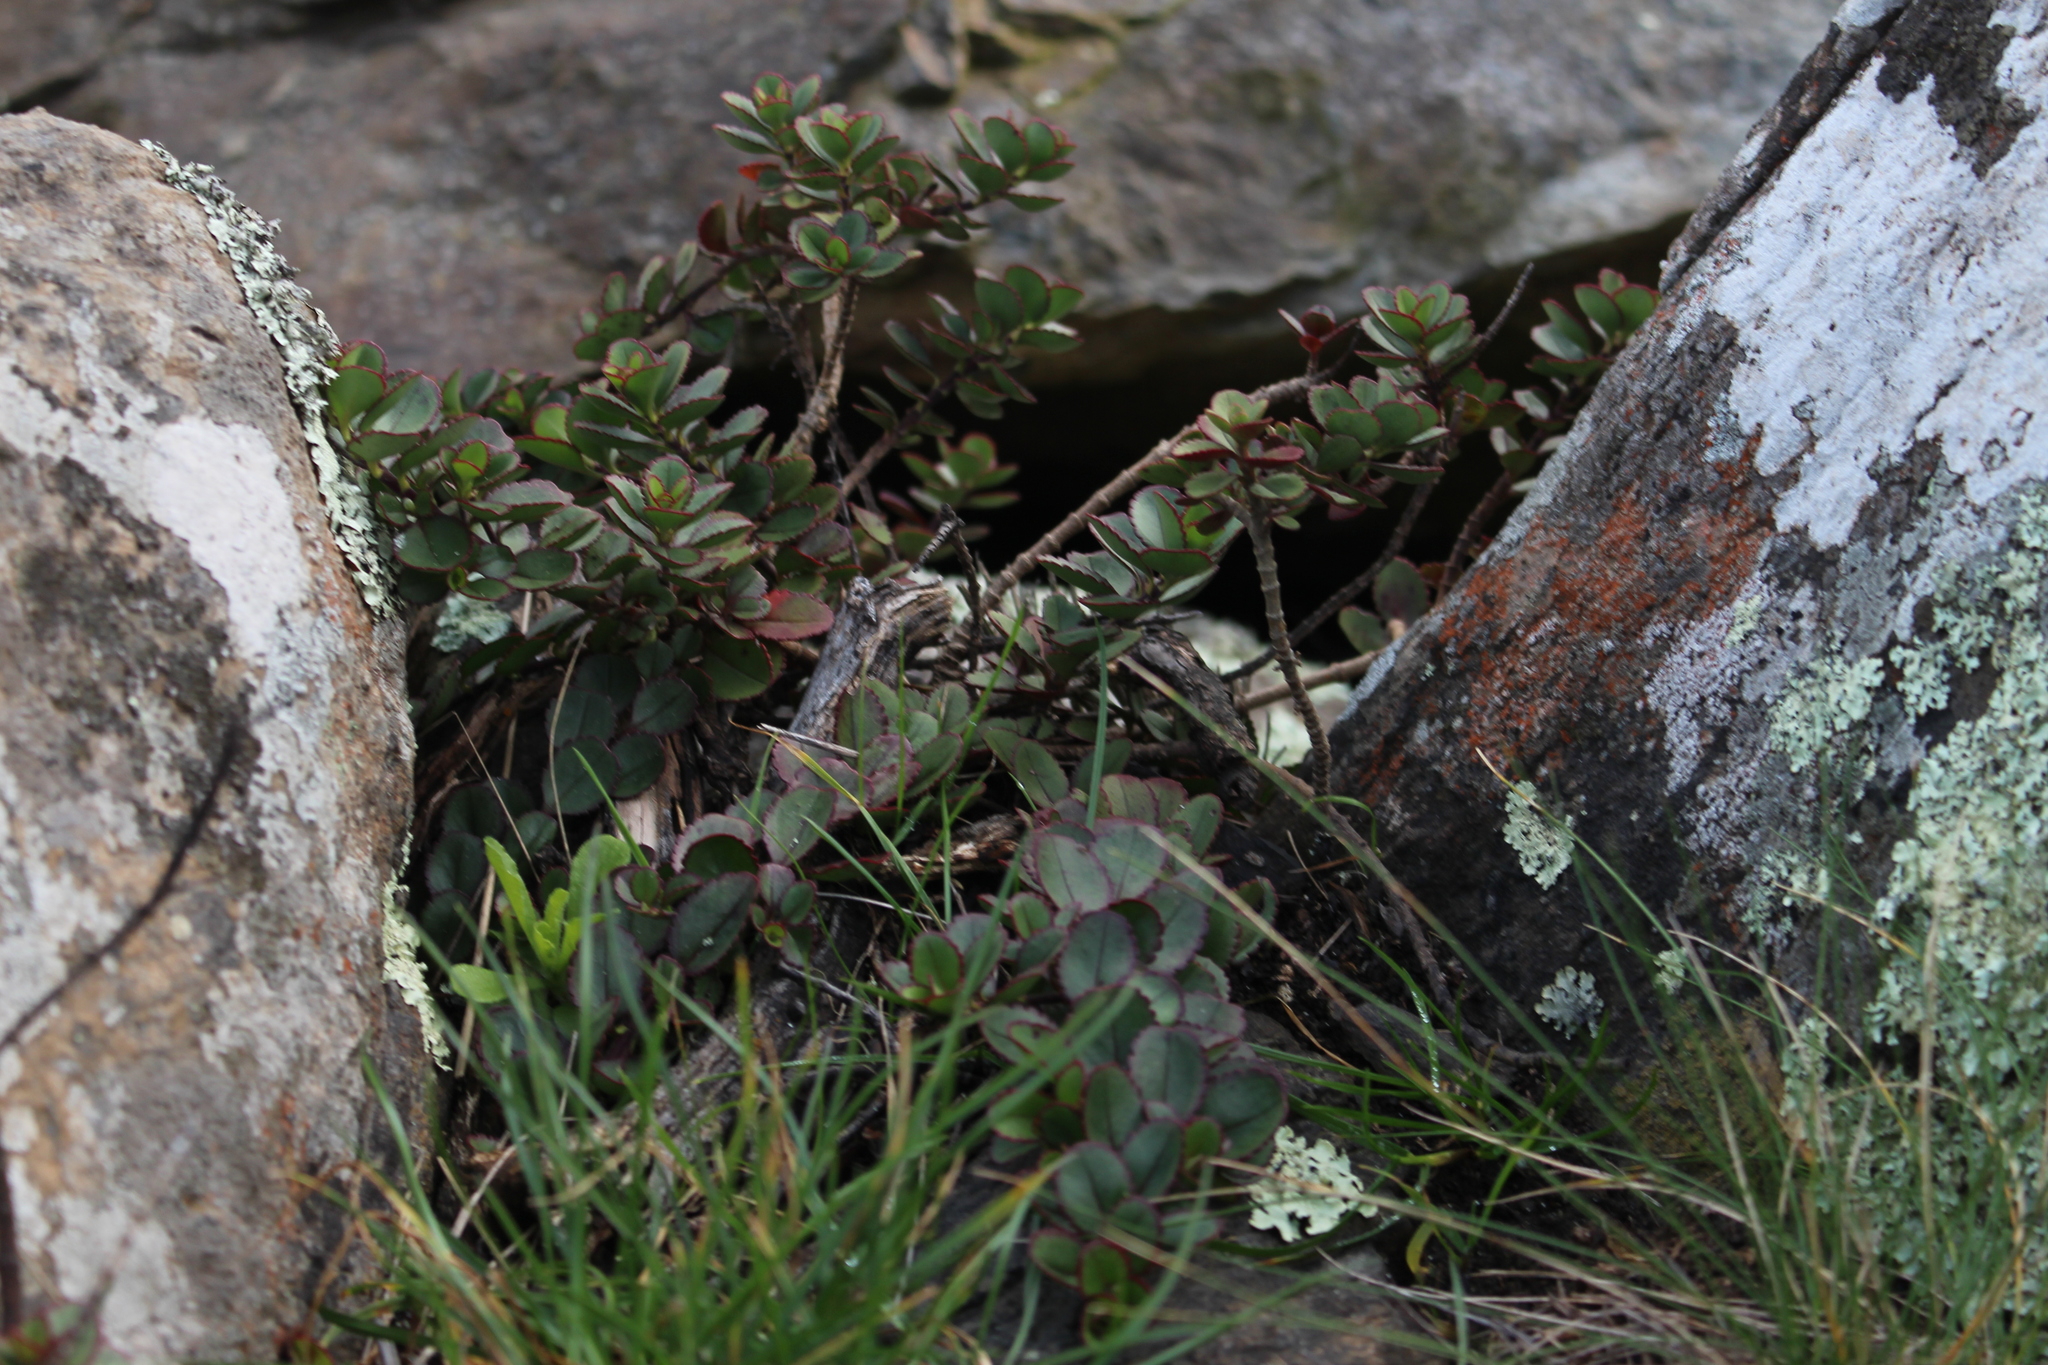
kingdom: Plantae
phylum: Tracheophyta
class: Magnoliopsida
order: Lamiales
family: Plantaginaceae
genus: Veronica
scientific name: Veronica lavaudiana
